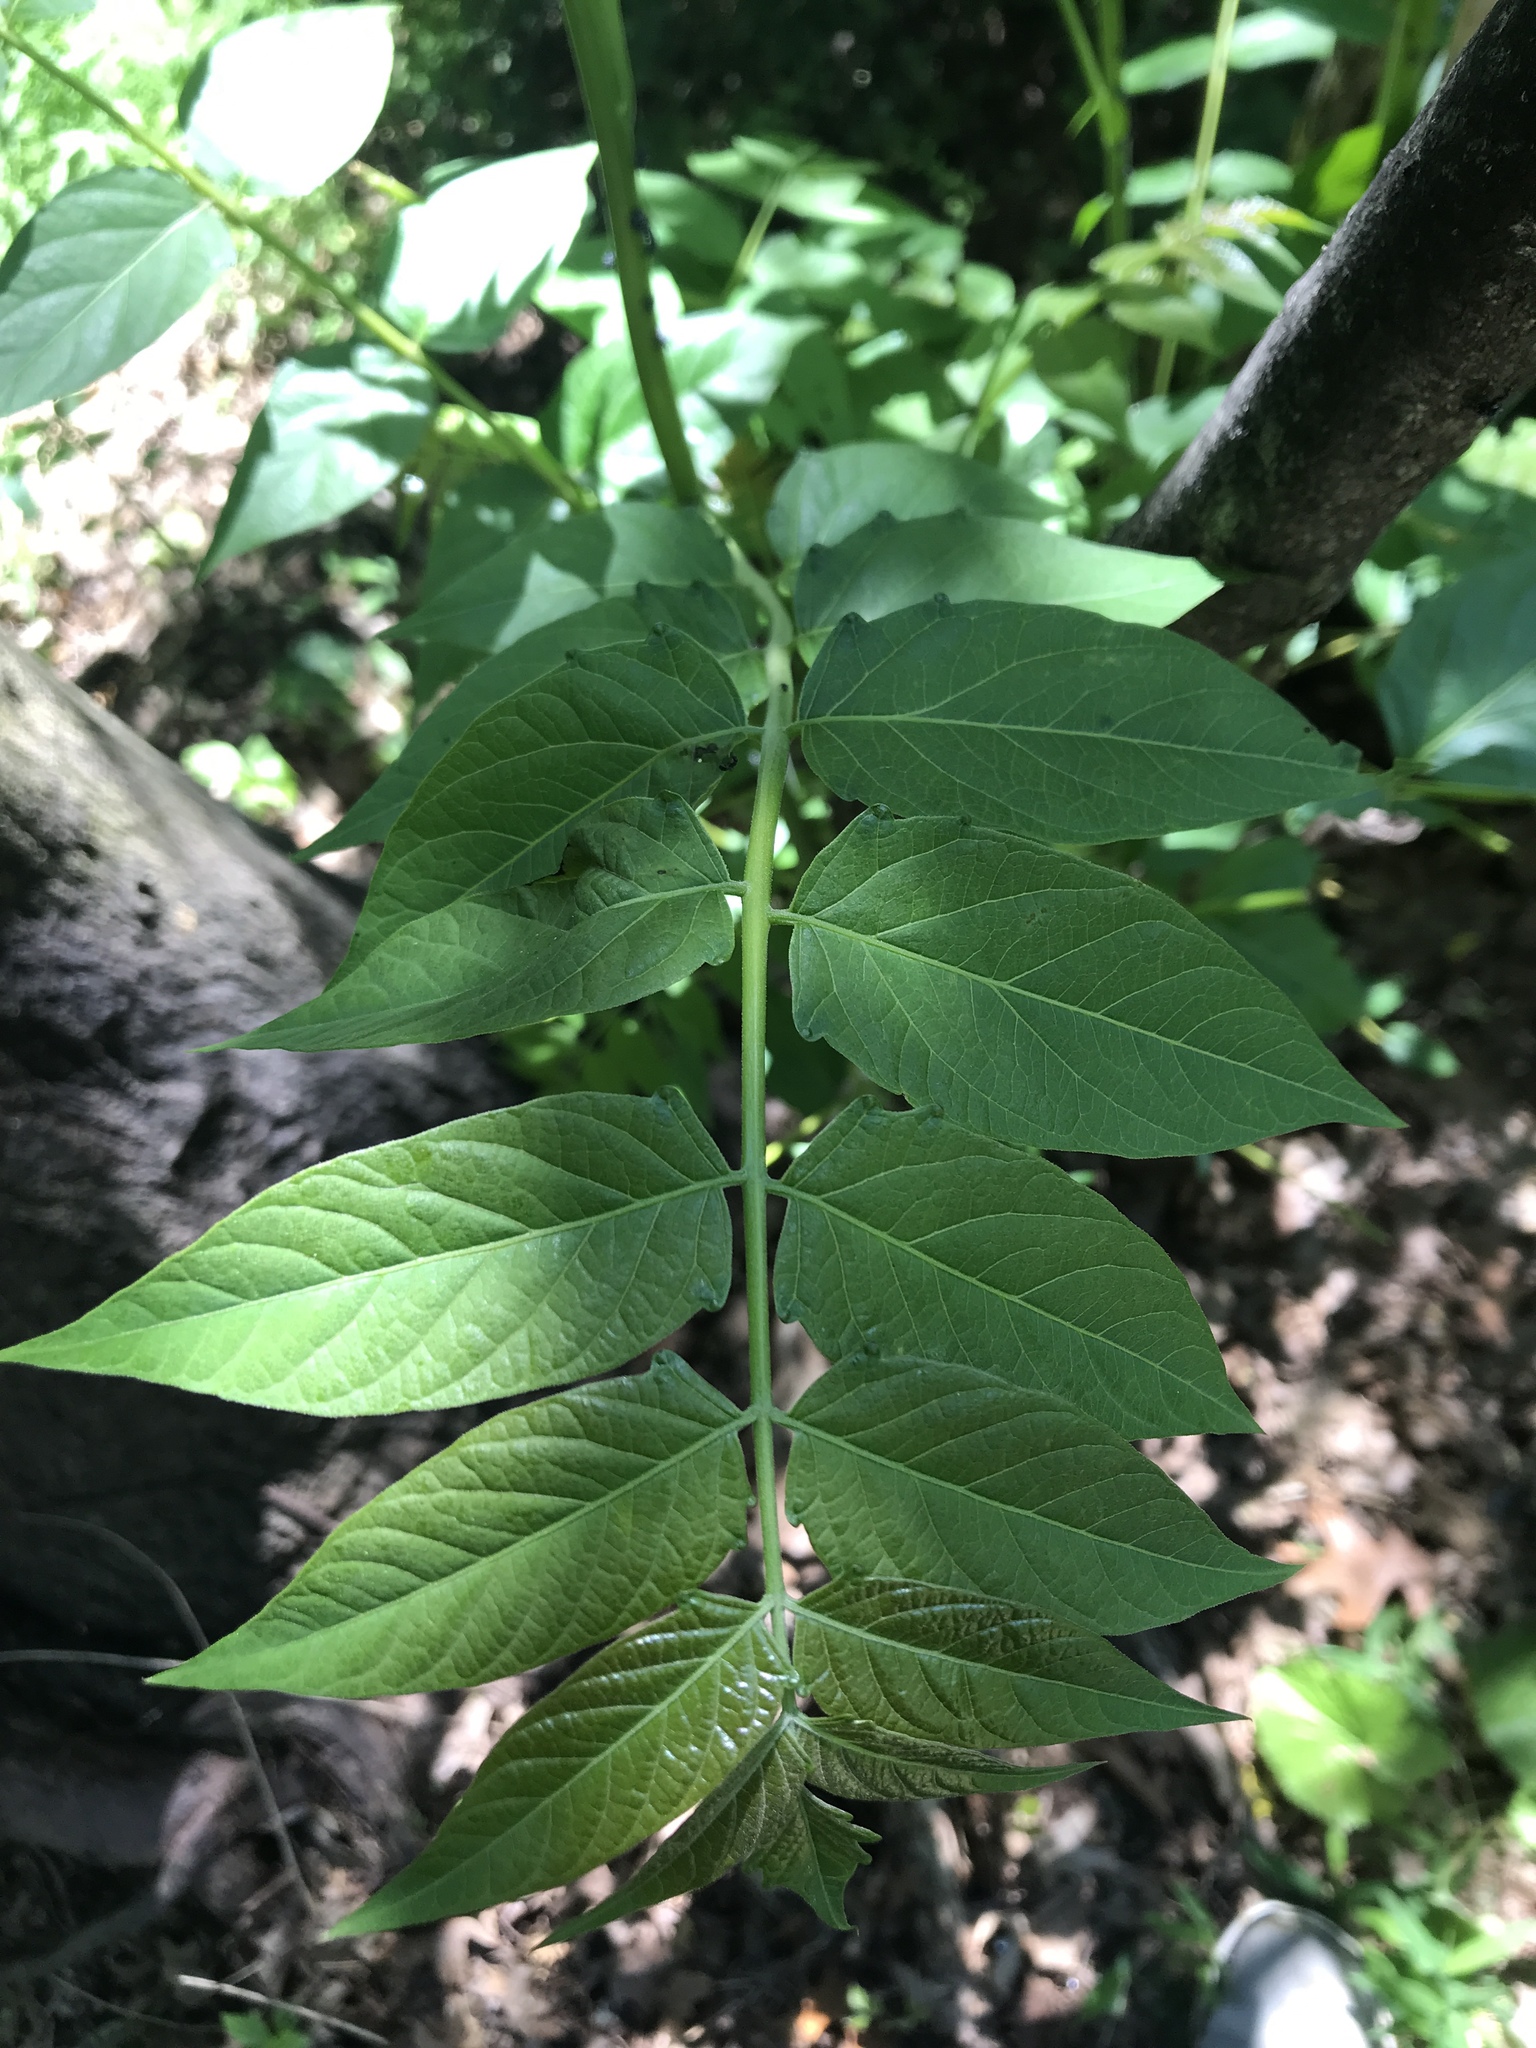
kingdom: Plantae
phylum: Tracheophyta
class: Magnoliopsida
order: Sapindales
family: Simaroubaceae
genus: Ailanthus
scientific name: Ailanthus altissima
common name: Tree-of-heaven
